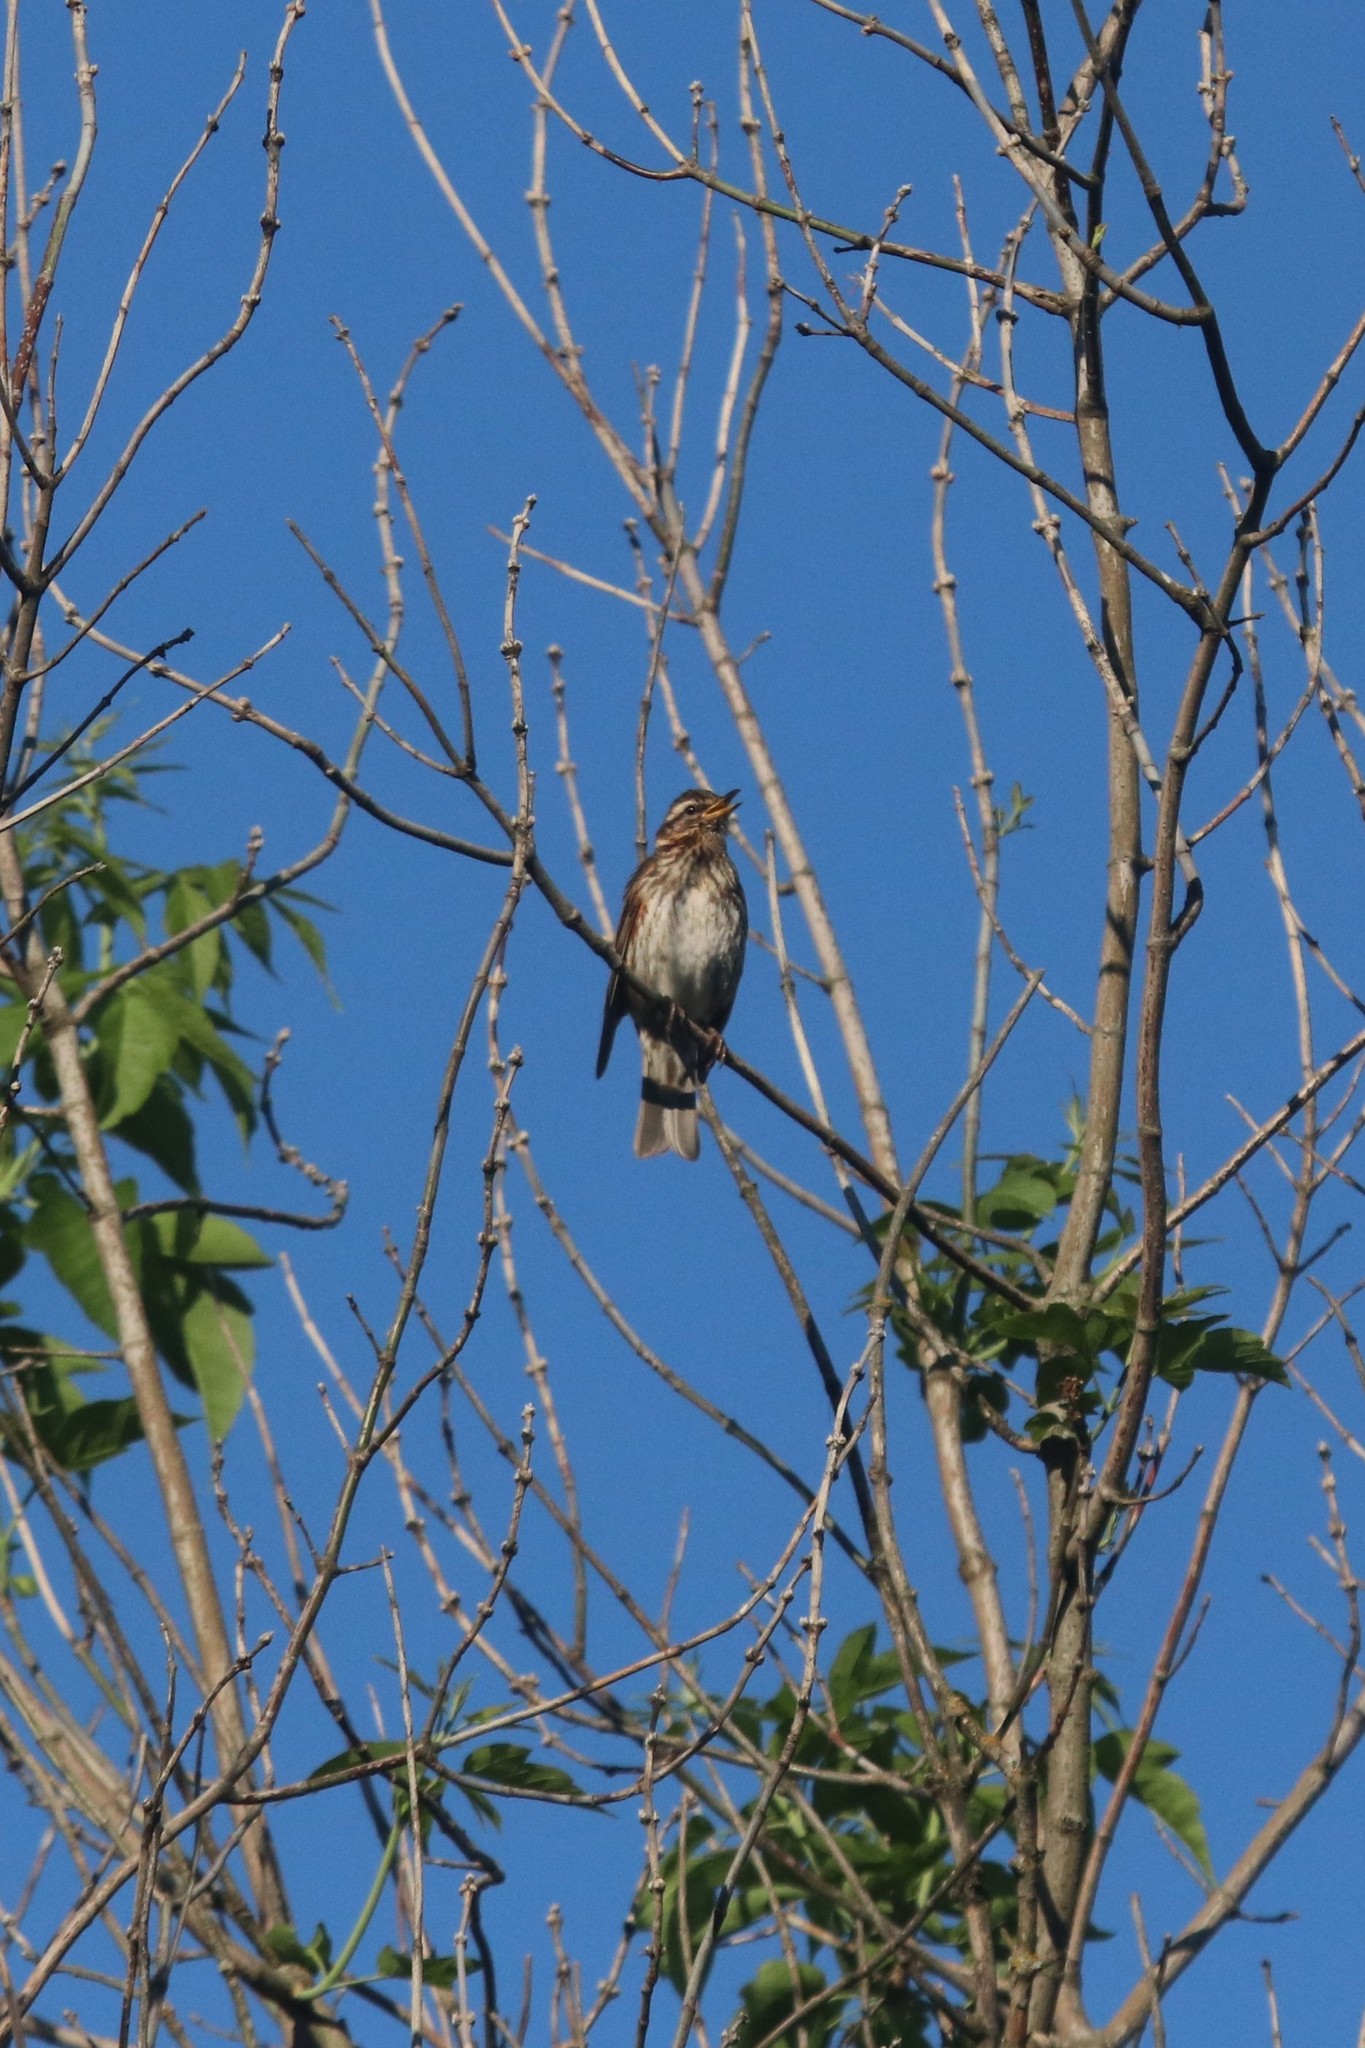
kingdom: Animalia
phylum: Chordata
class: Aves
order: Passeriformes
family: Turdidae
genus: Turdus
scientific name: Turdus iliacus
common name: Redwing
